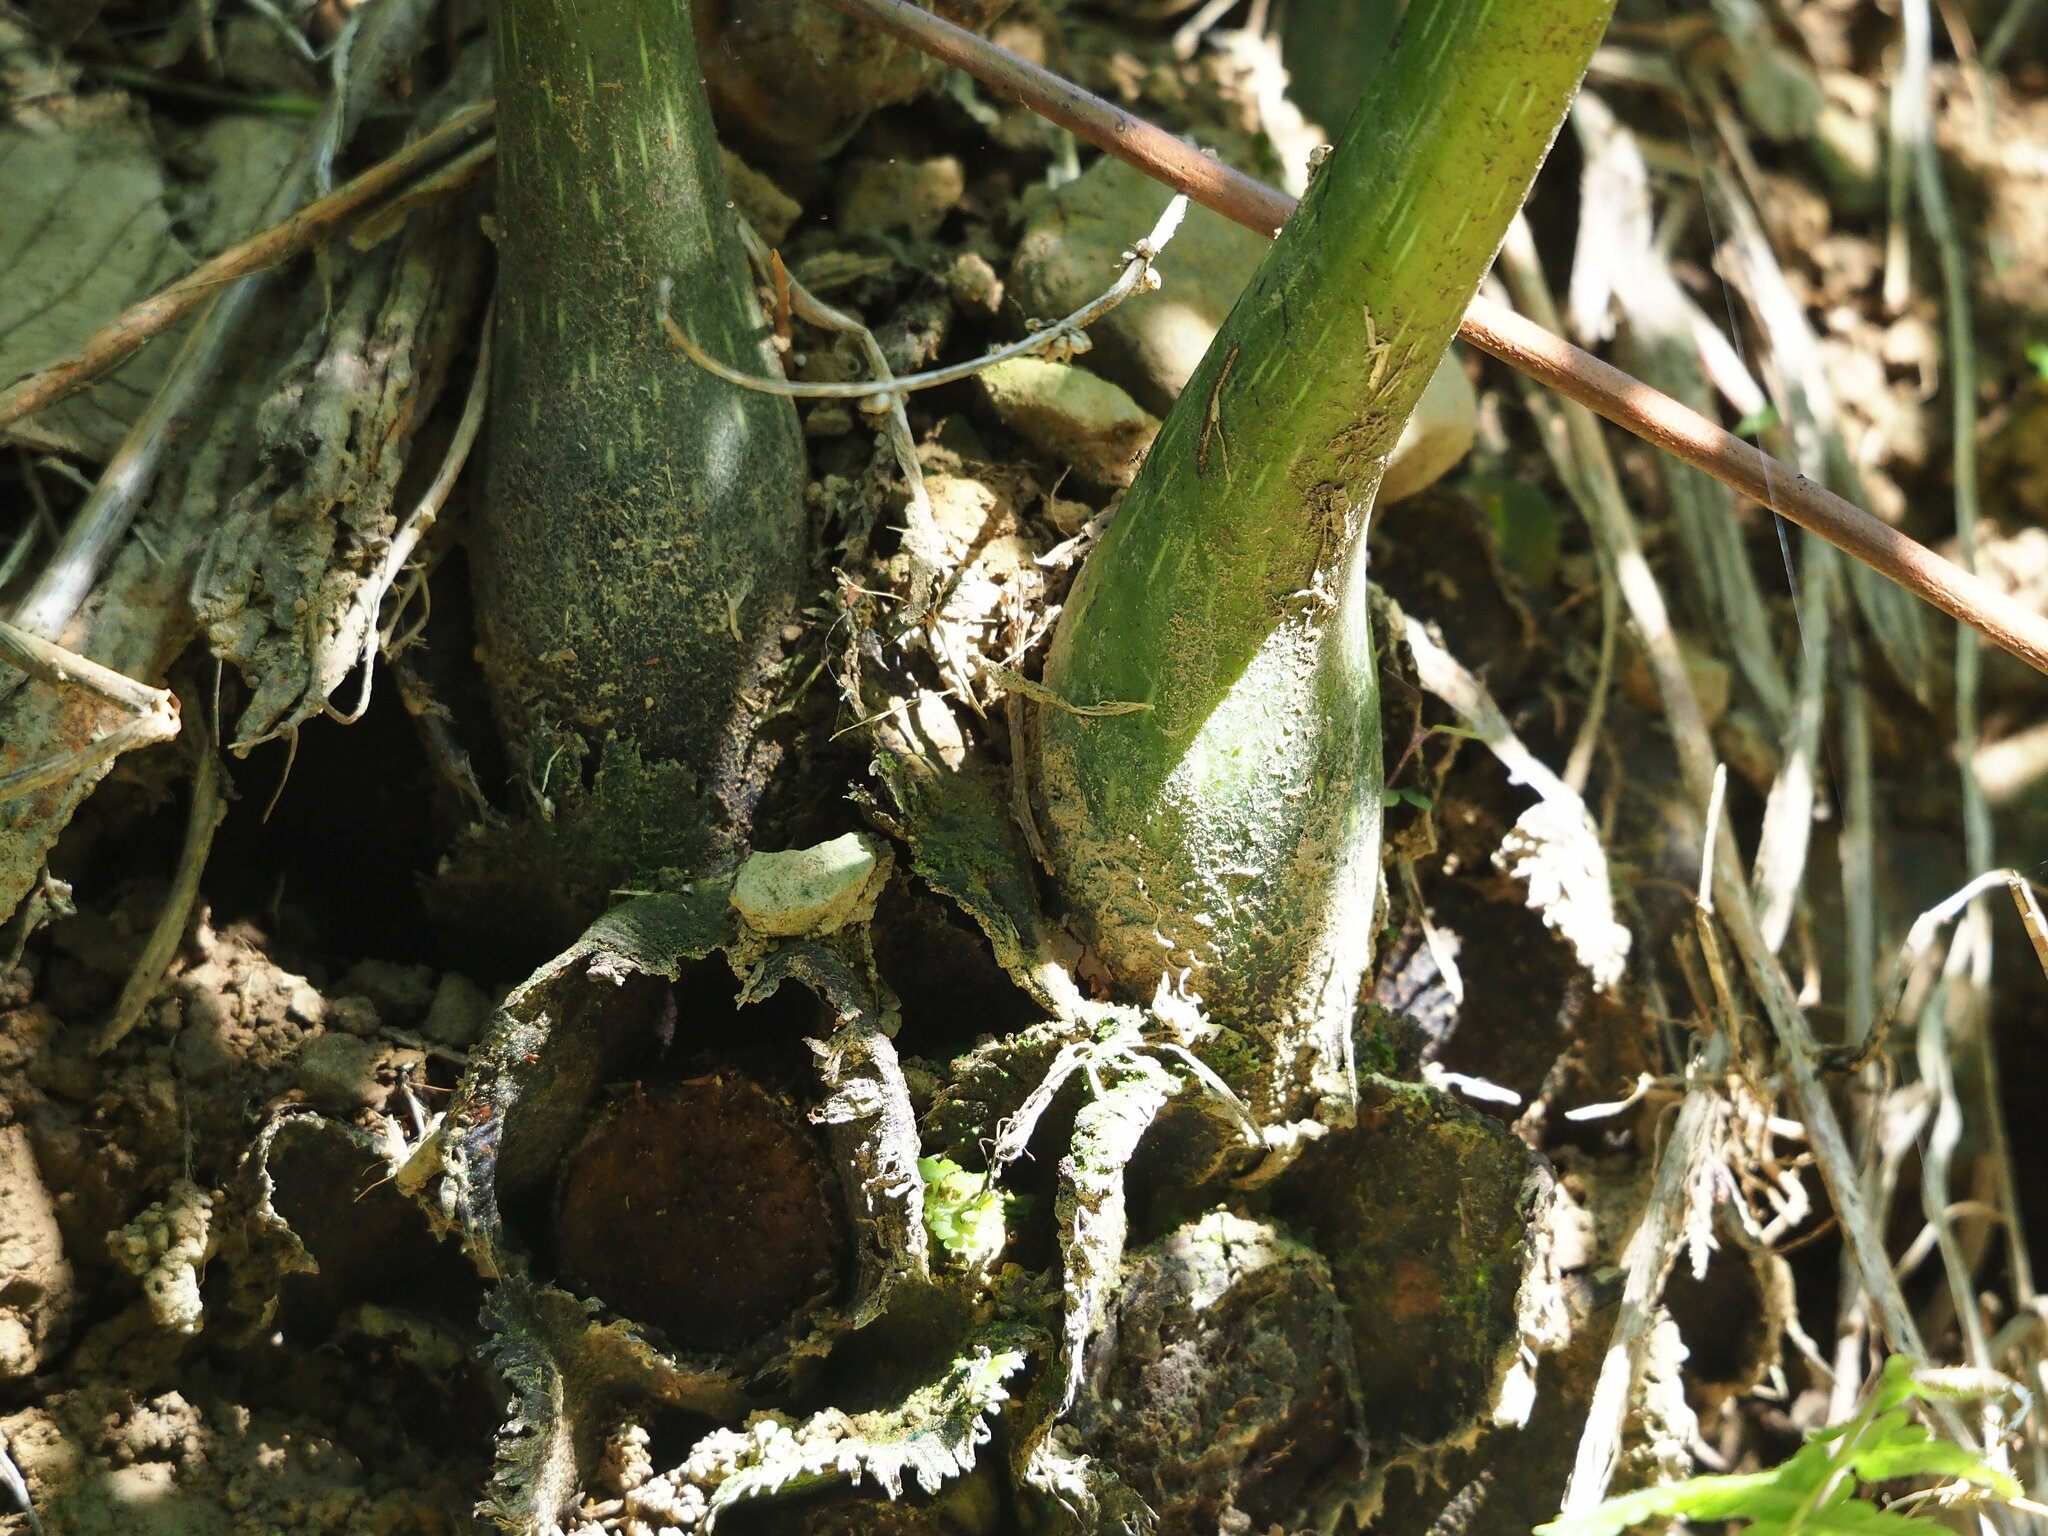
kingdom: Plantae
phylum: Tracheophyta
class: Polypodiopsida
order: Marattiales
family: Marattiaceae
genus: Angiopteris
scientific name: Angiopteris lygodiifolia
